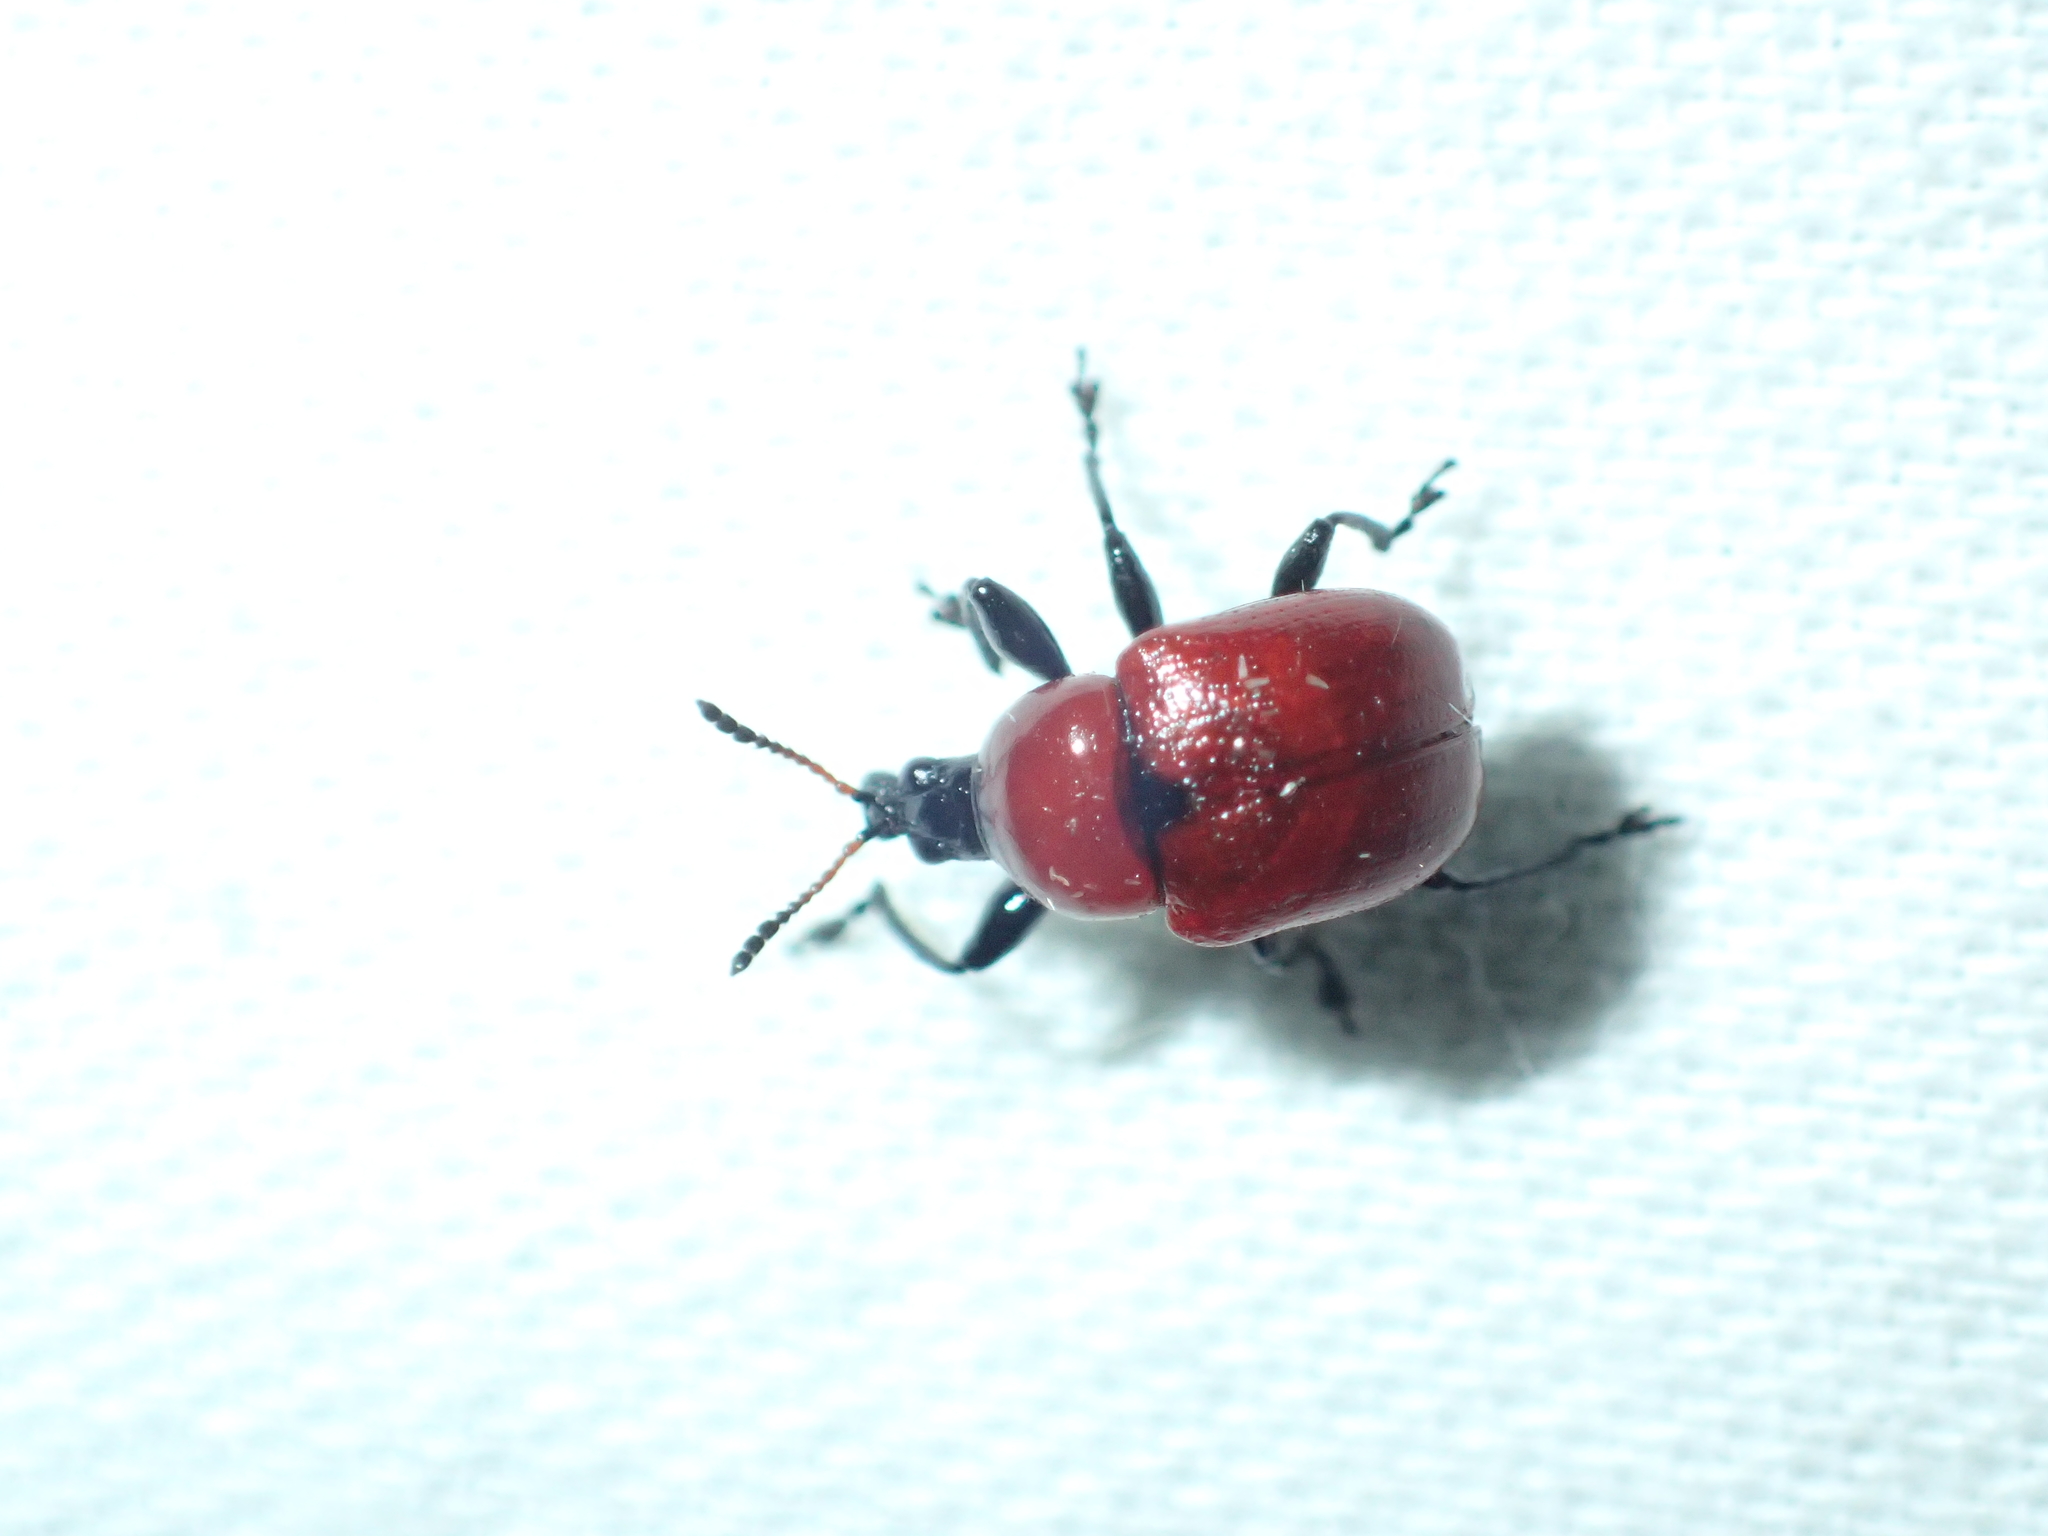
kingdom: Animalia
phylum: Arthropoda
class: Insecta
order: Coleoptera
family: Attelabidae
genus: Attelabus
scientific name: Attelabus nitens
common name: Oak leaf-roller
